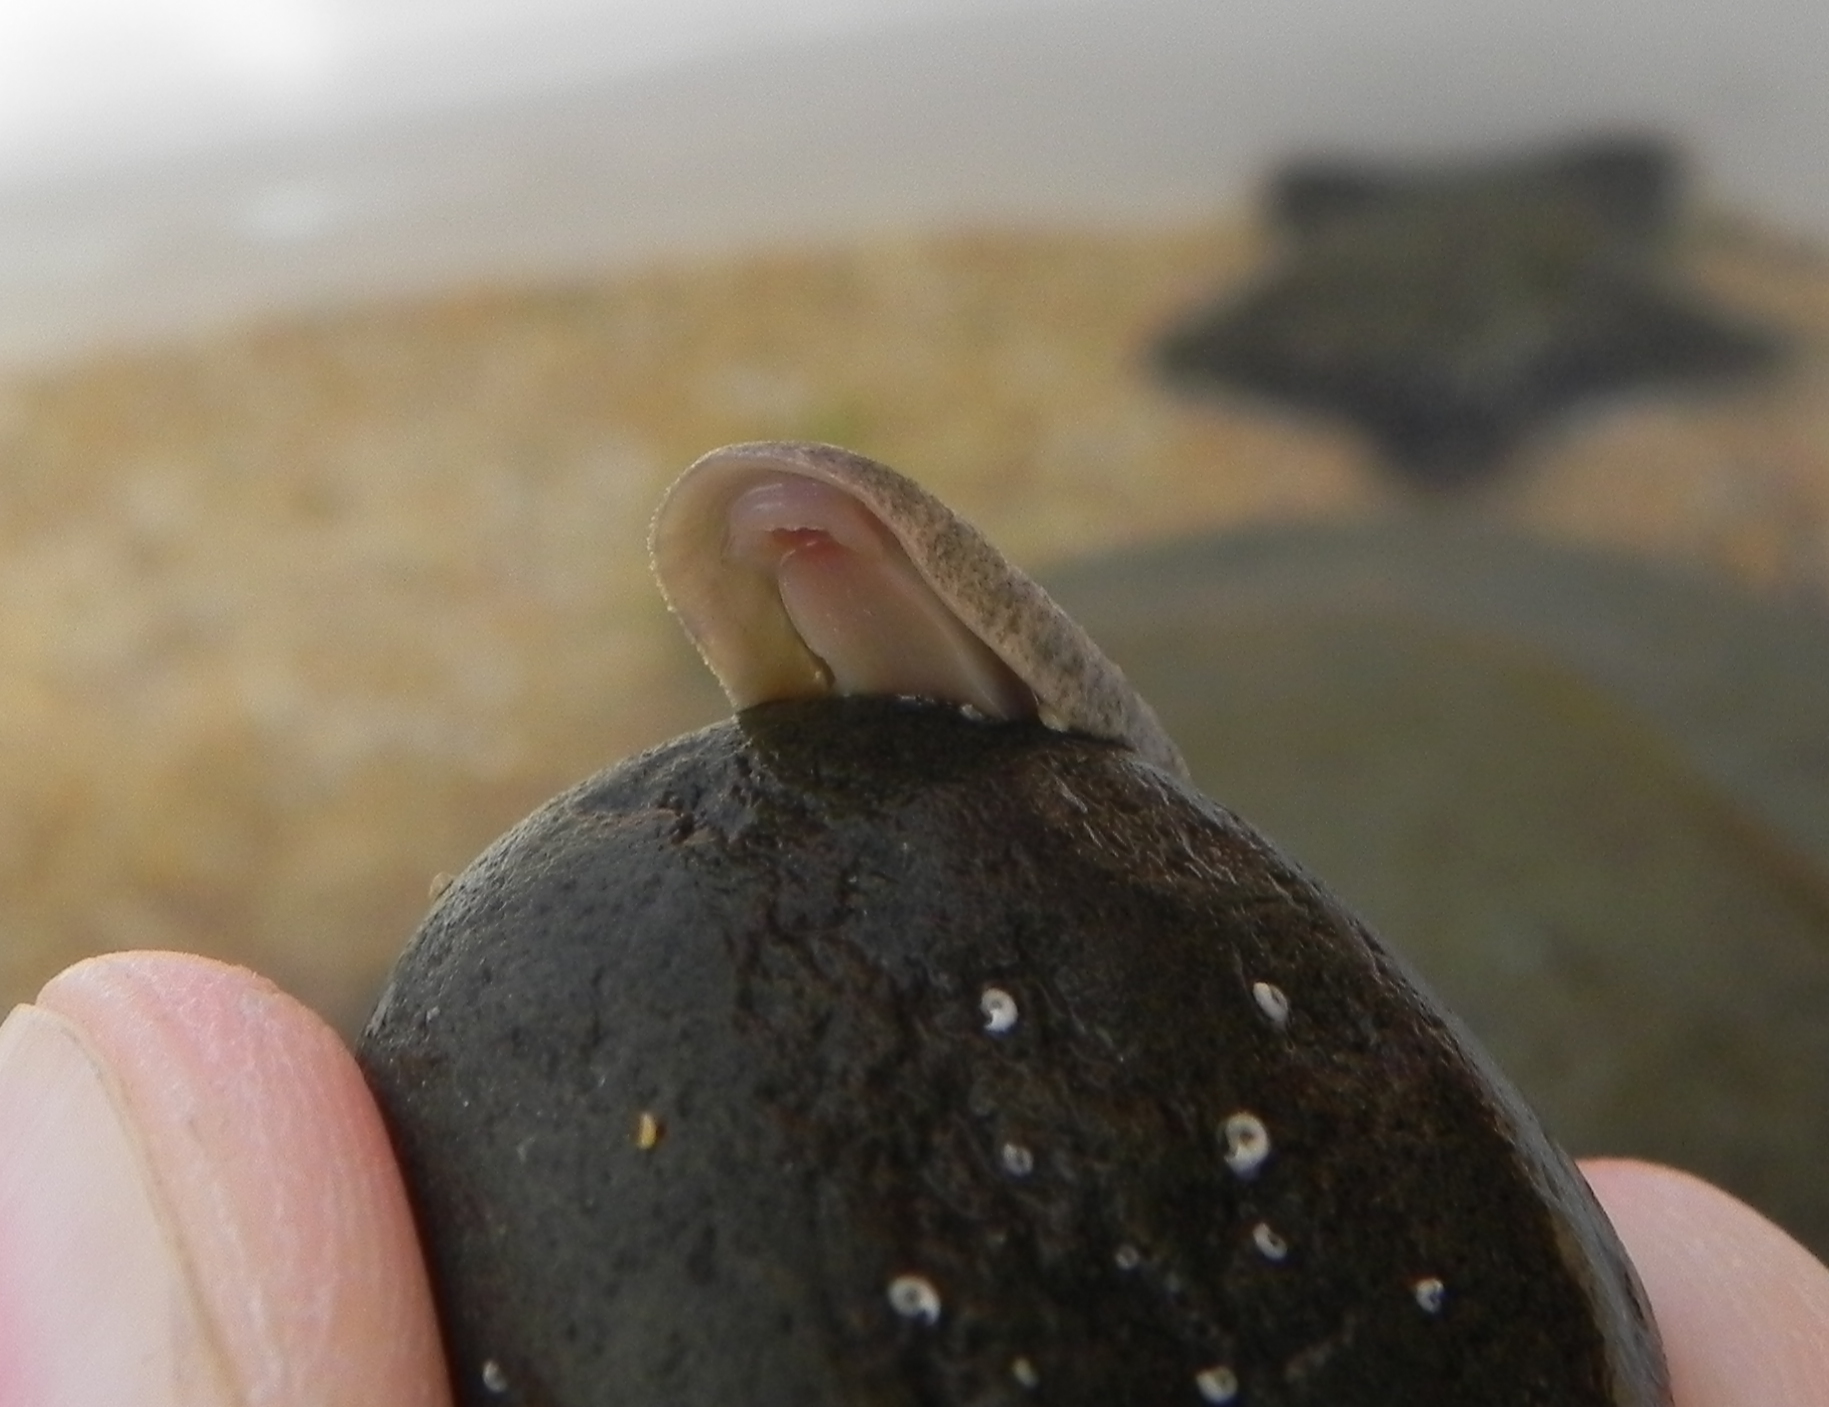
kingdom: Animalia
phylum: Mollusca
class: Polyplacophora
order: Chitonida
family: Ischnochitonidae
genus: Ischnochiton
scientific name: Ischnochiton oniscus
